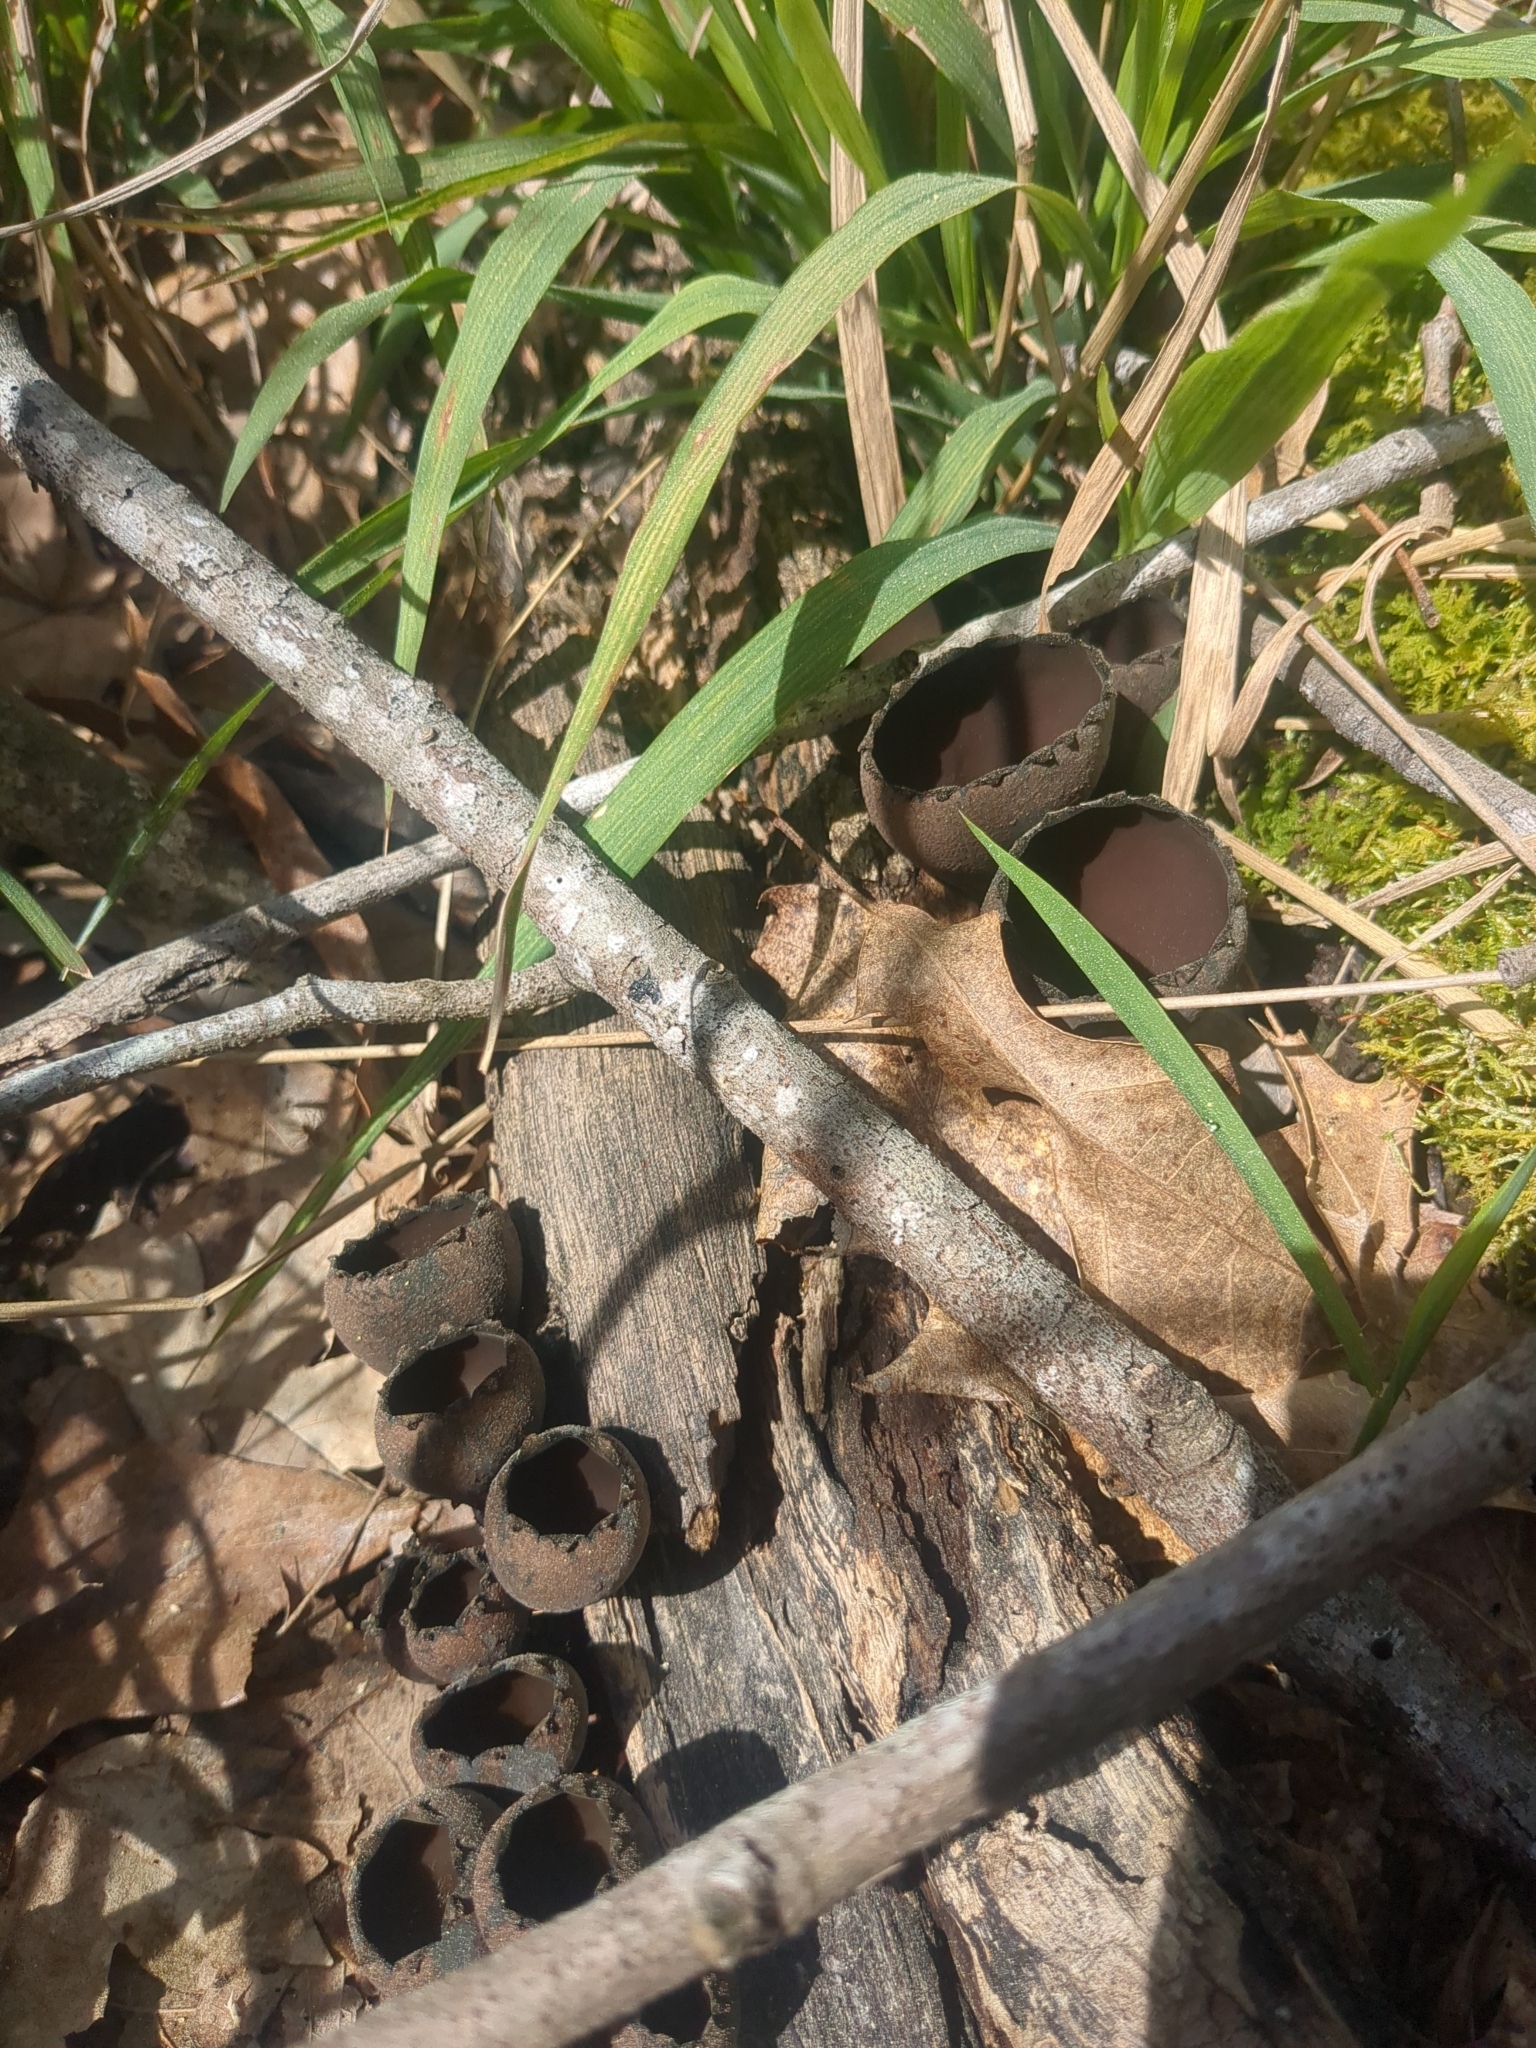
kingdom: Fungi
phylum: Ascomycota
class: Pezizomycetes
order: Pezizales
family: Sarcosomataceae
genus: Urnula
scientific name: Urnula craterium
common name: Devil's urn
